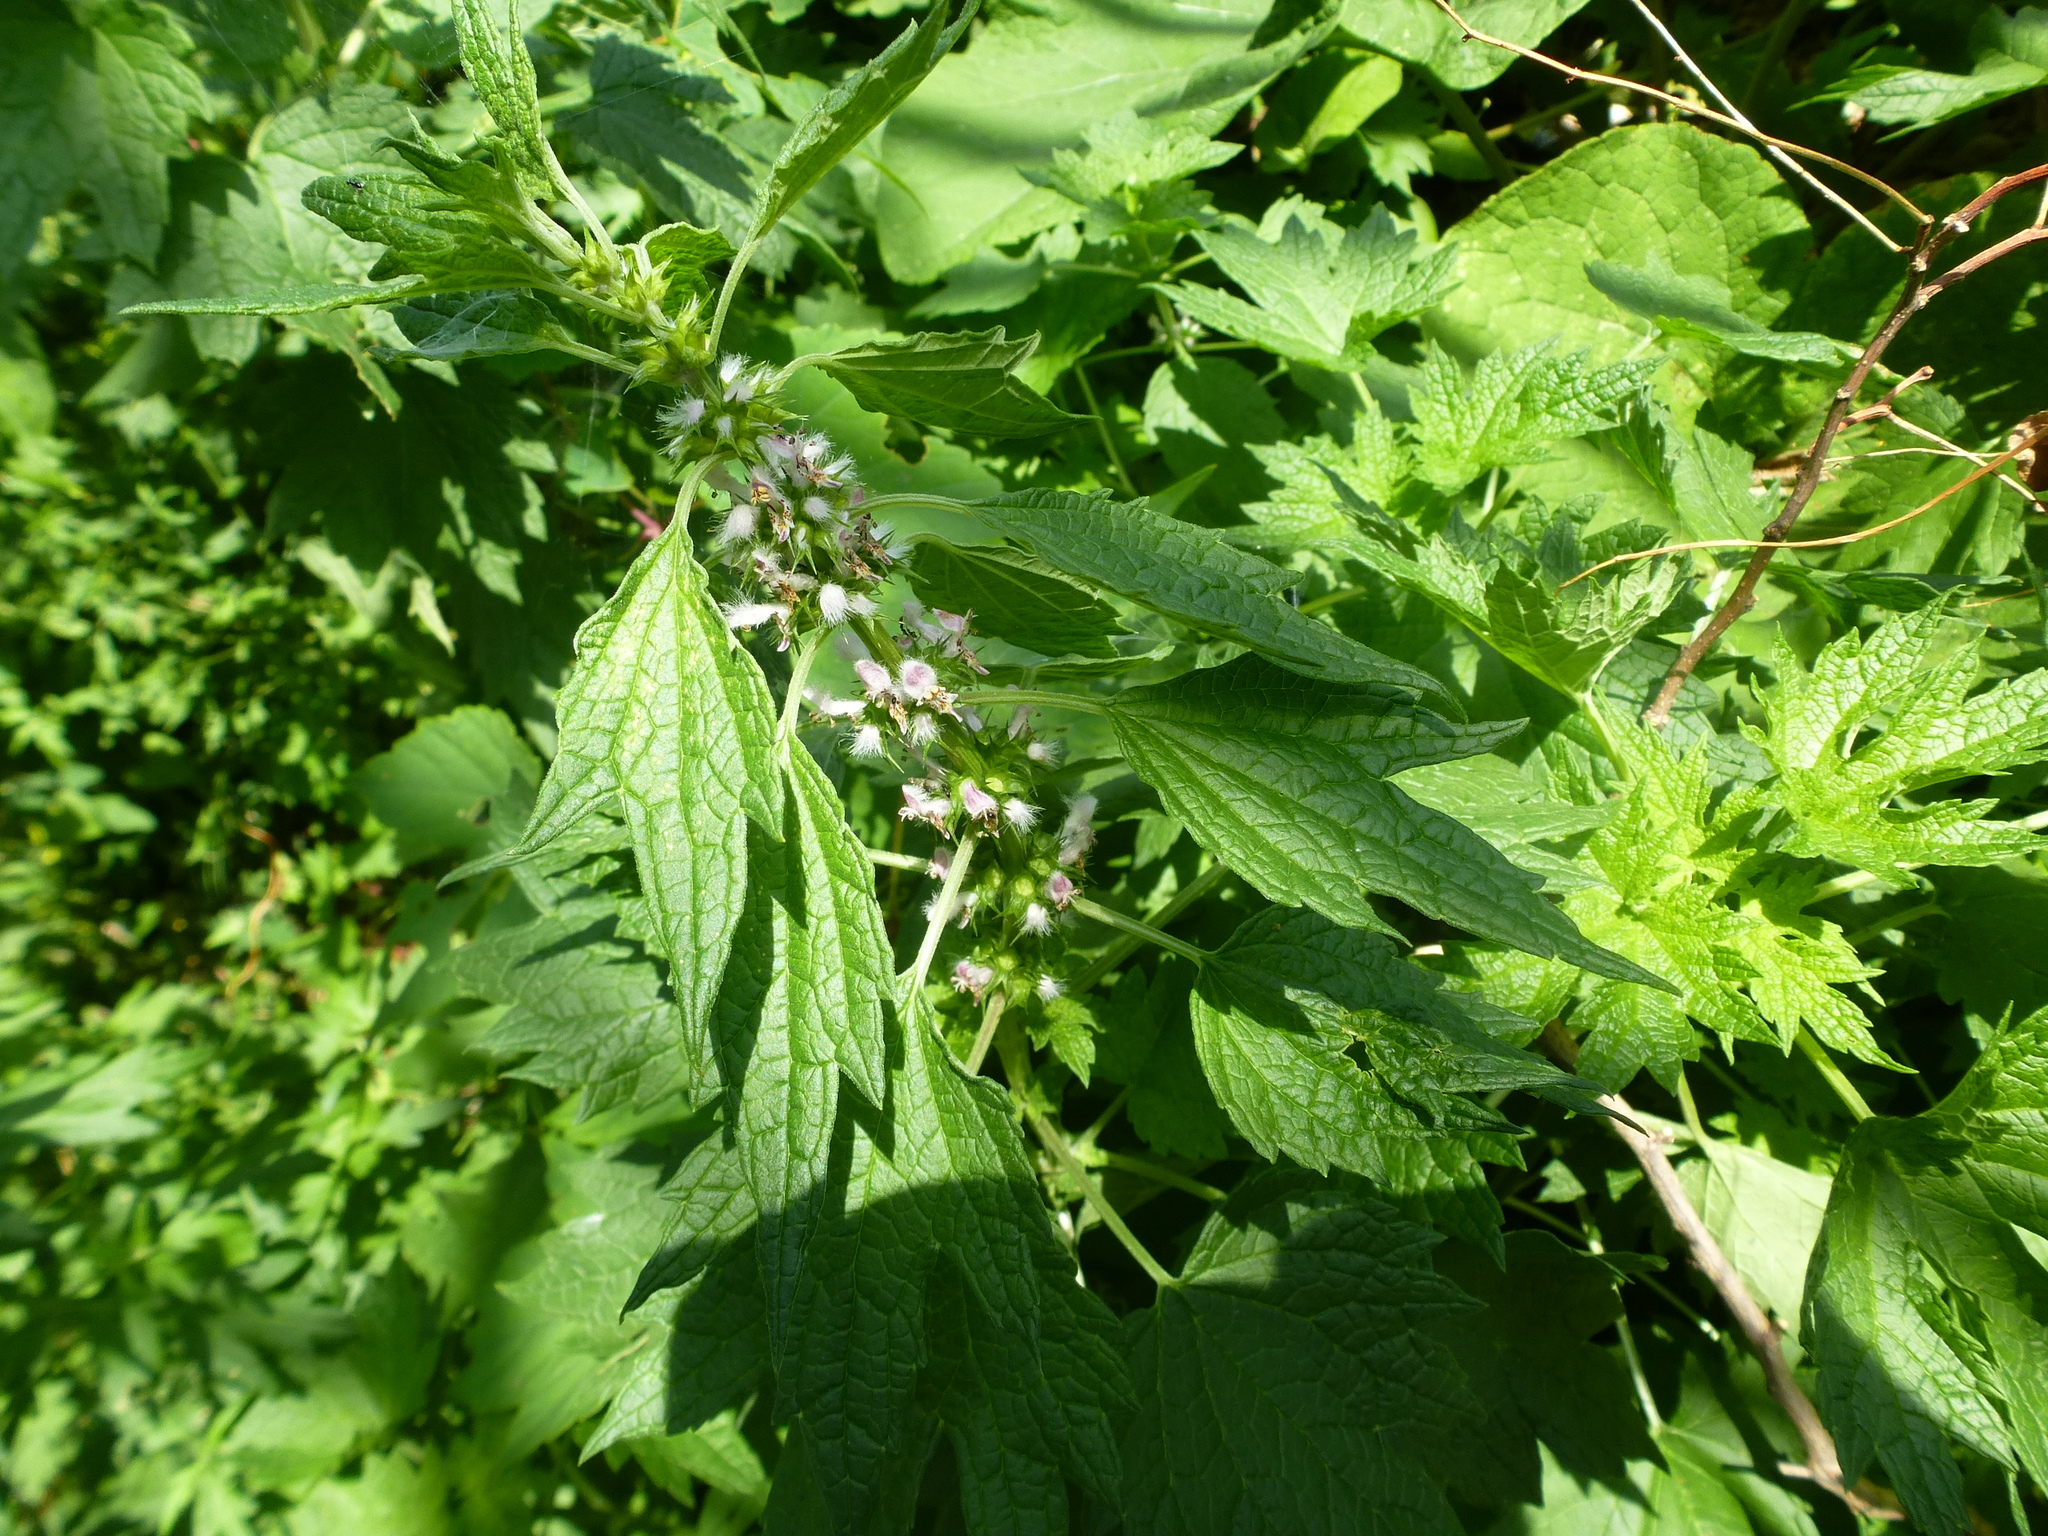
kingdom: Plantae
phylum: Tracheophyta
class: Magnoliopsida
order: Lamiales
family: Lamiaceae
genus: Leonurus
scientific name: Leonurus cardiaca
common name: Motherwort
